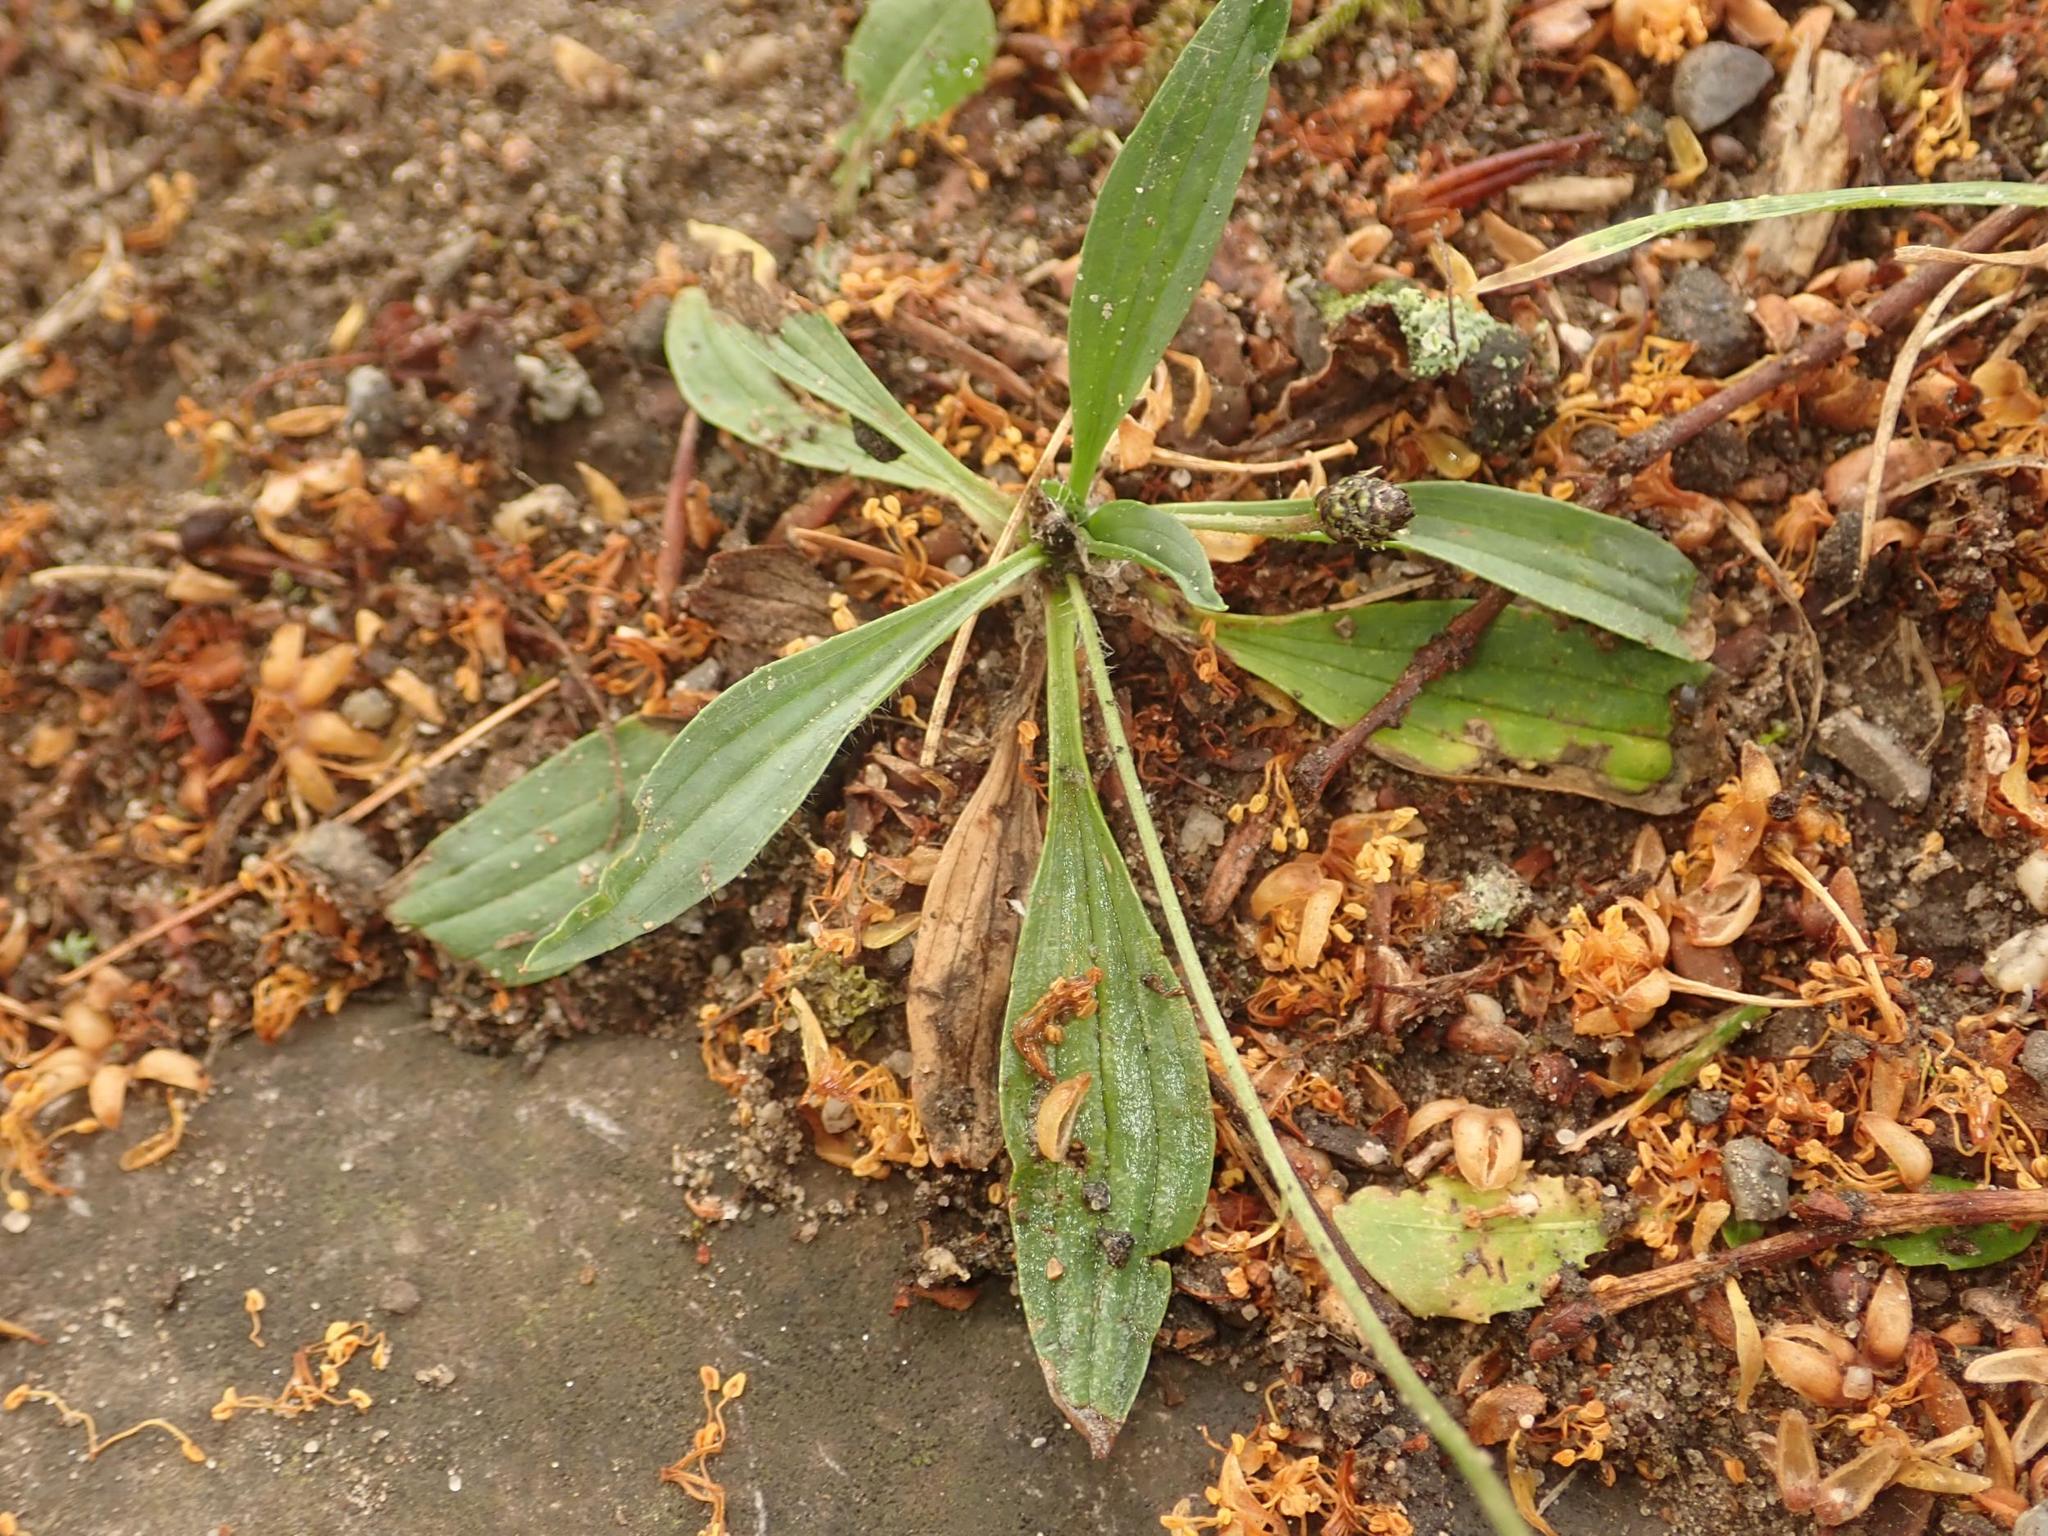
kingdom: Plantae
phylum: Tracheophyta
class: Magnoliopsida
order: Lamiales
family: Plantaginaceae
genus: Plantago
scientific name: Plantago lanceolata
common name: Ribwort plantain
